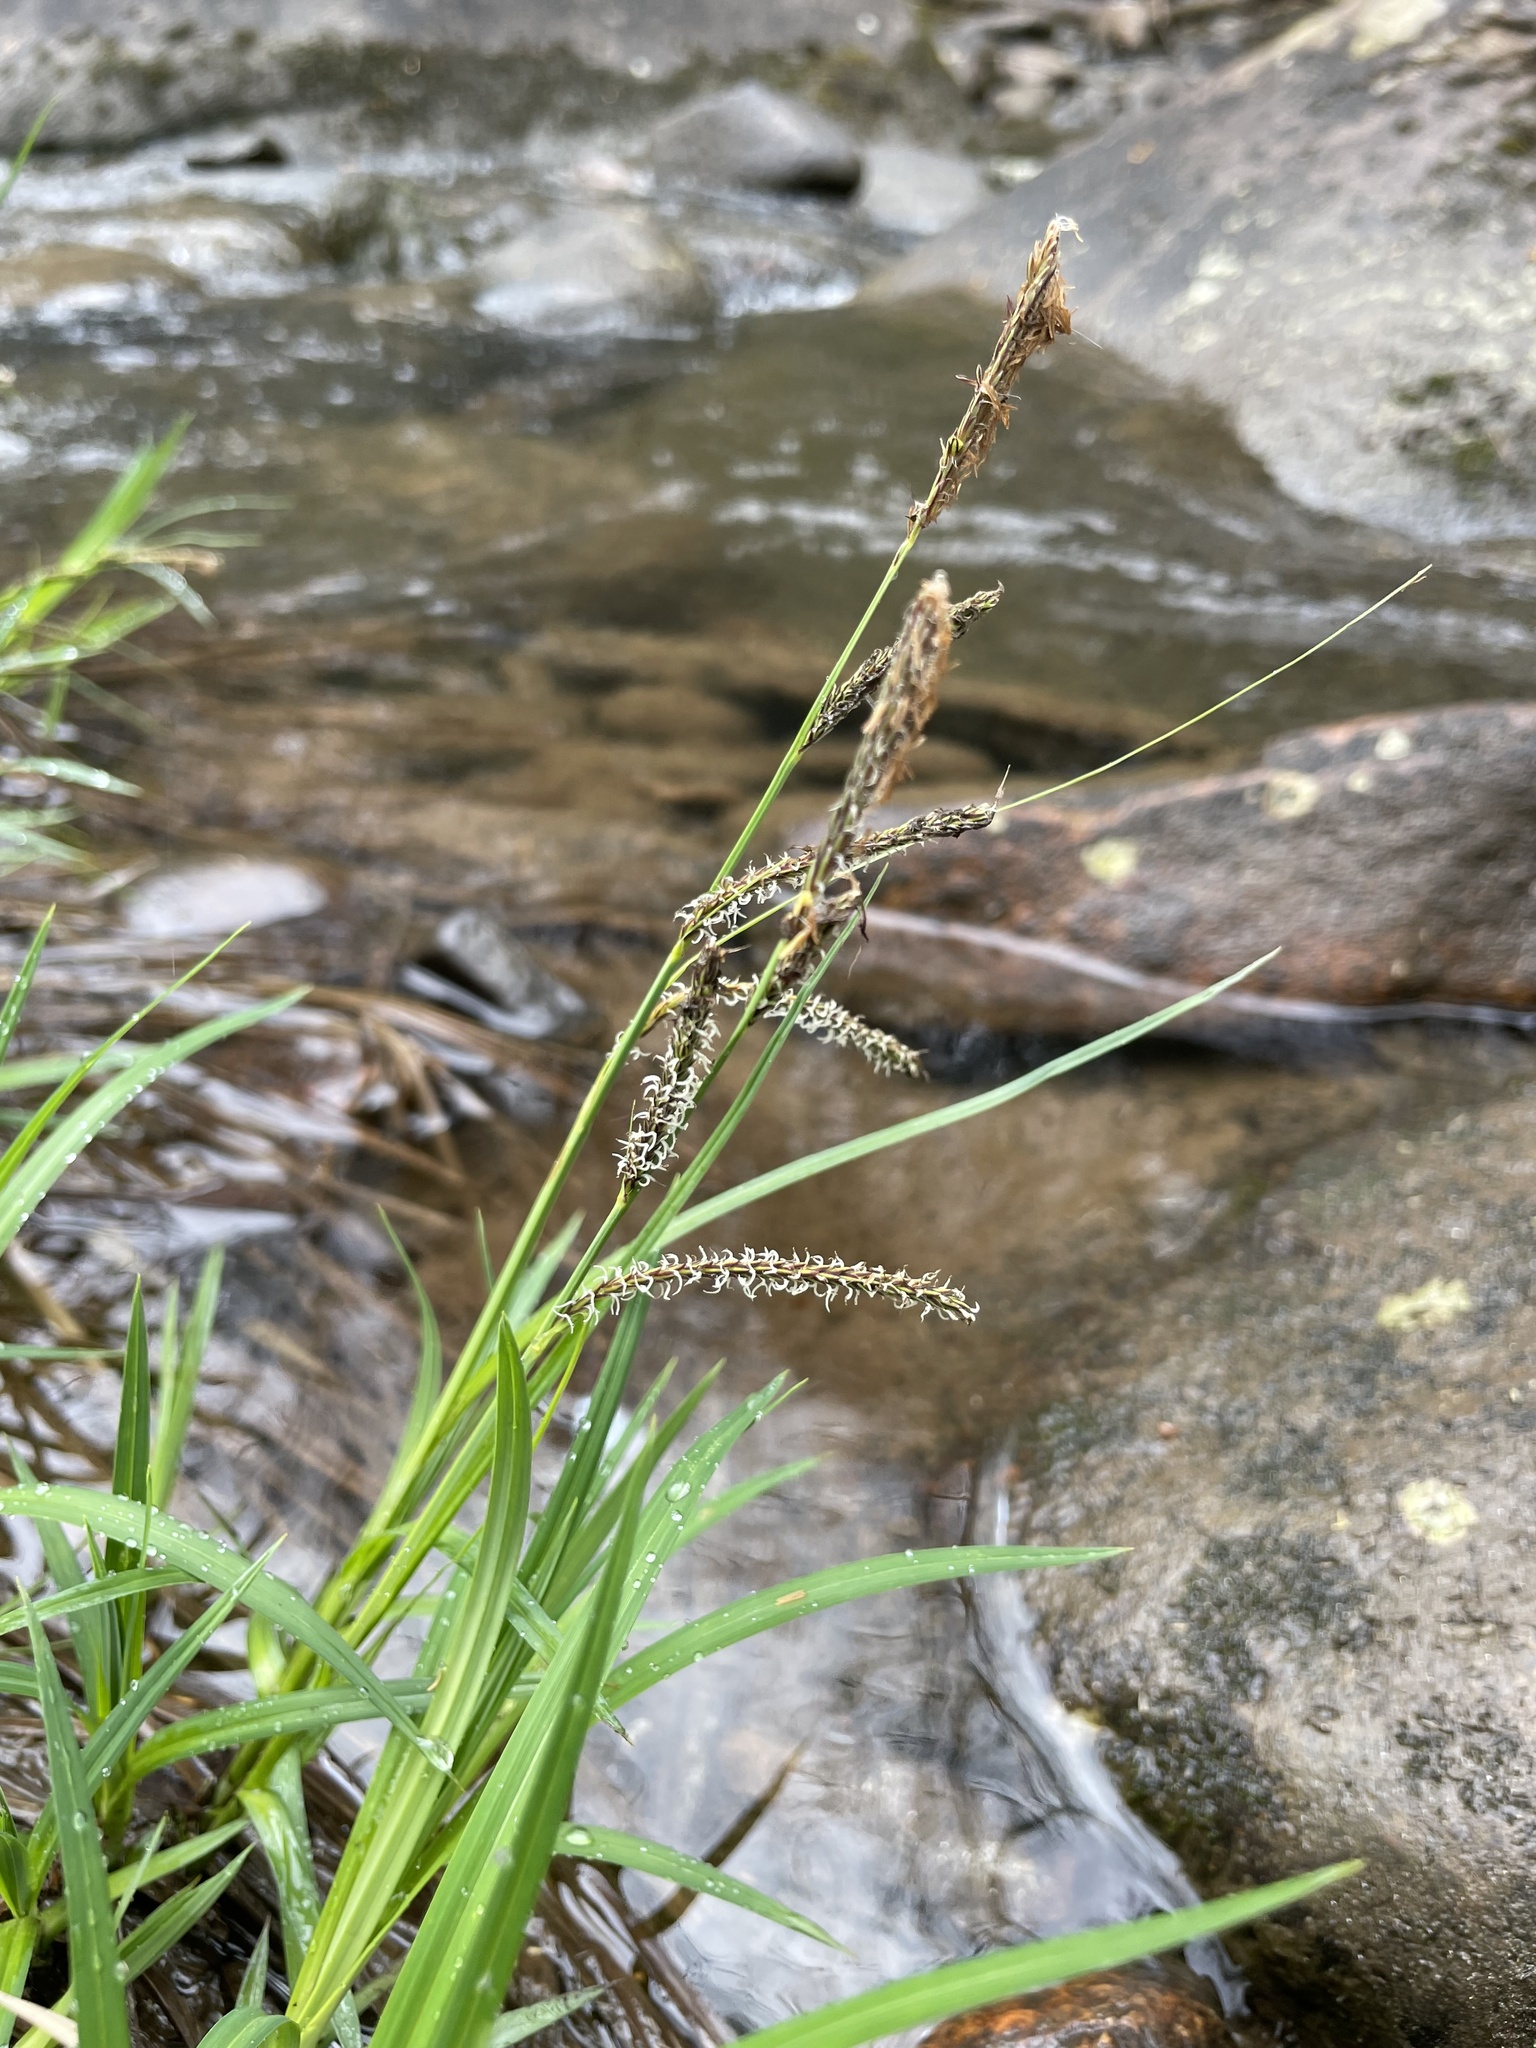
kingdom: Plantae
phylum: Tracheophyta
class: Liliopsida
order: Poales
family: Cyperaceae
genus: Carex
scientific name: Carex torta
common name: Twisted sedge
